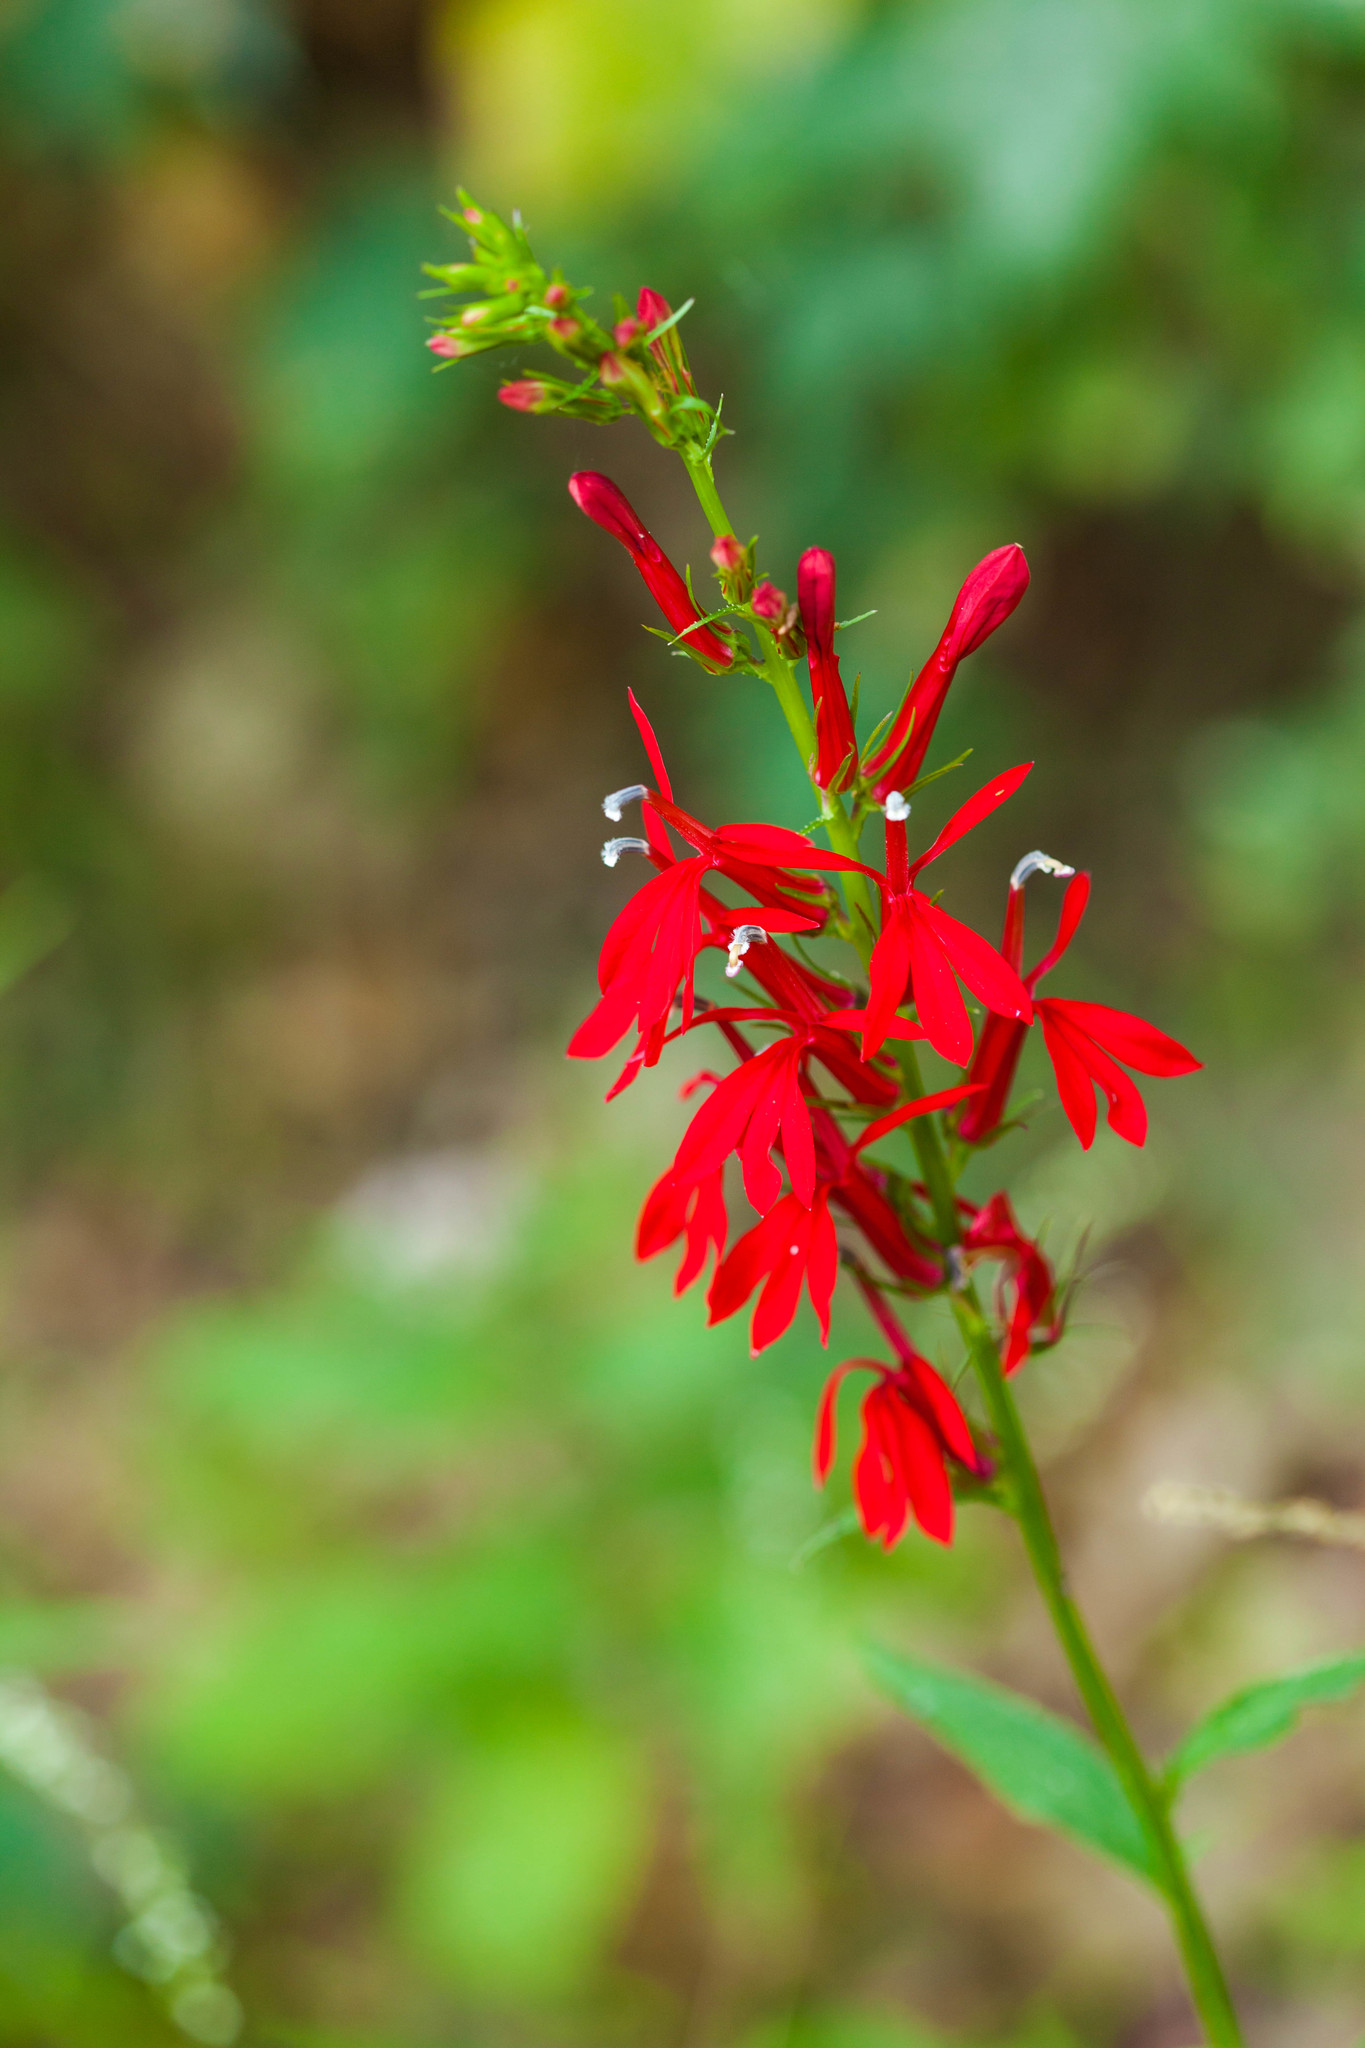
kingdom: Plantae
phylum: Tracheophyta
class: Magnoliopsida
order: Asterales
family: Campanulaceae
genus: Lobelia
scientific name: Lobelia cardinalis
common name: Cardinal flower
